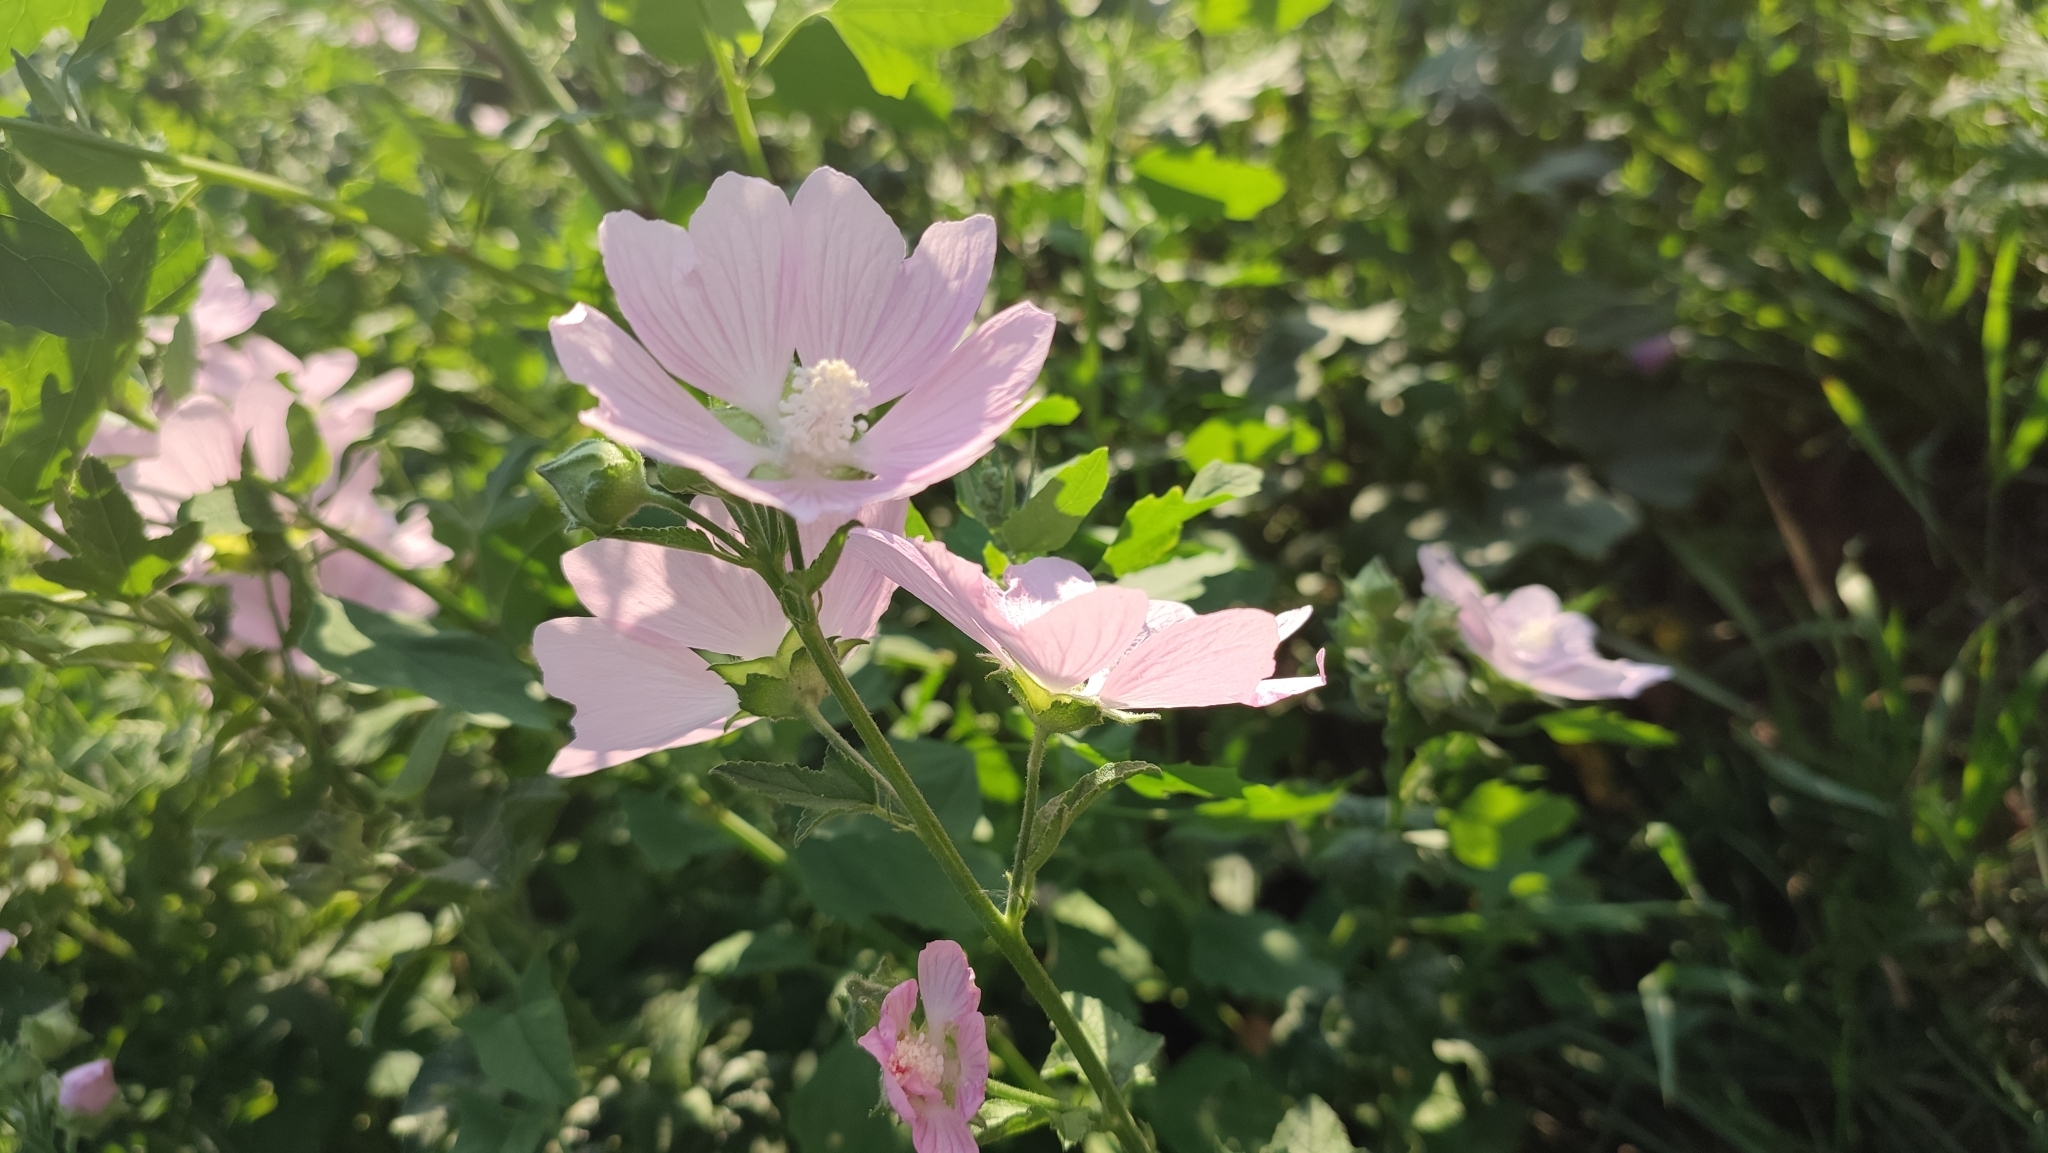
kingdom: Plantae
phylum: Tracheophyta
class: Magnoliopsida
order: Malvales
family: Malvaceae
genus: Malva
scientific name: Malva thuringiaca
